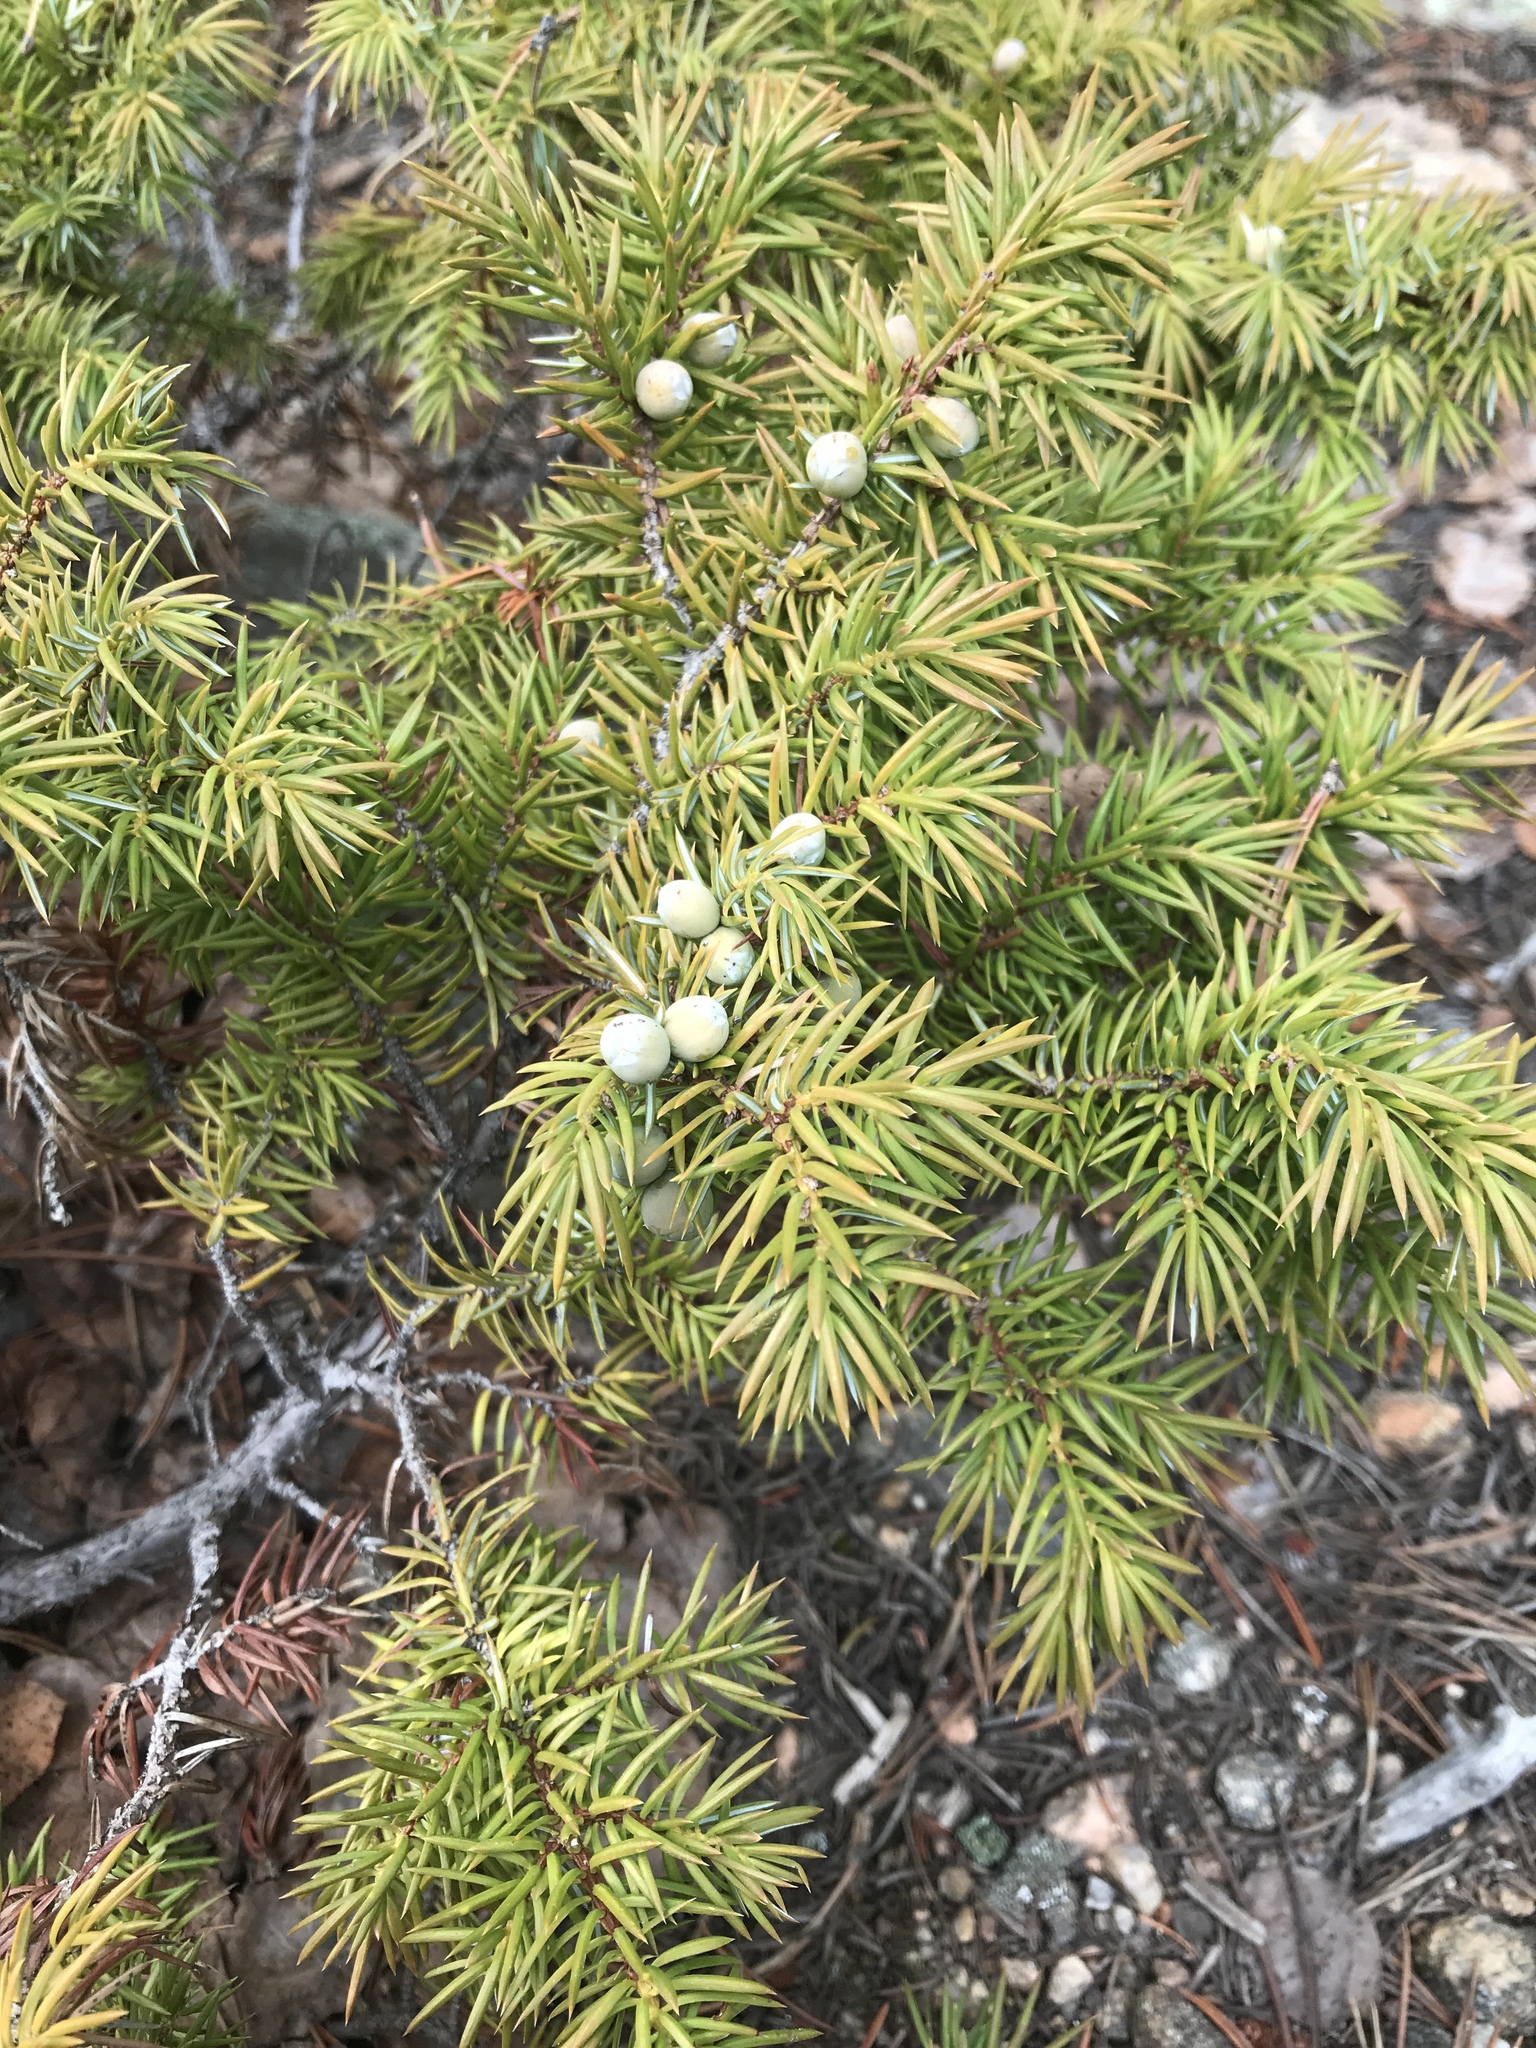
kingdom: Plantae
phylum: Tracheophyta
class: Pinopsida
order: Pinales
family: Cupressaceae
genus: Juniperus
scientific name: Juniperus communis
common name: Common juniper
